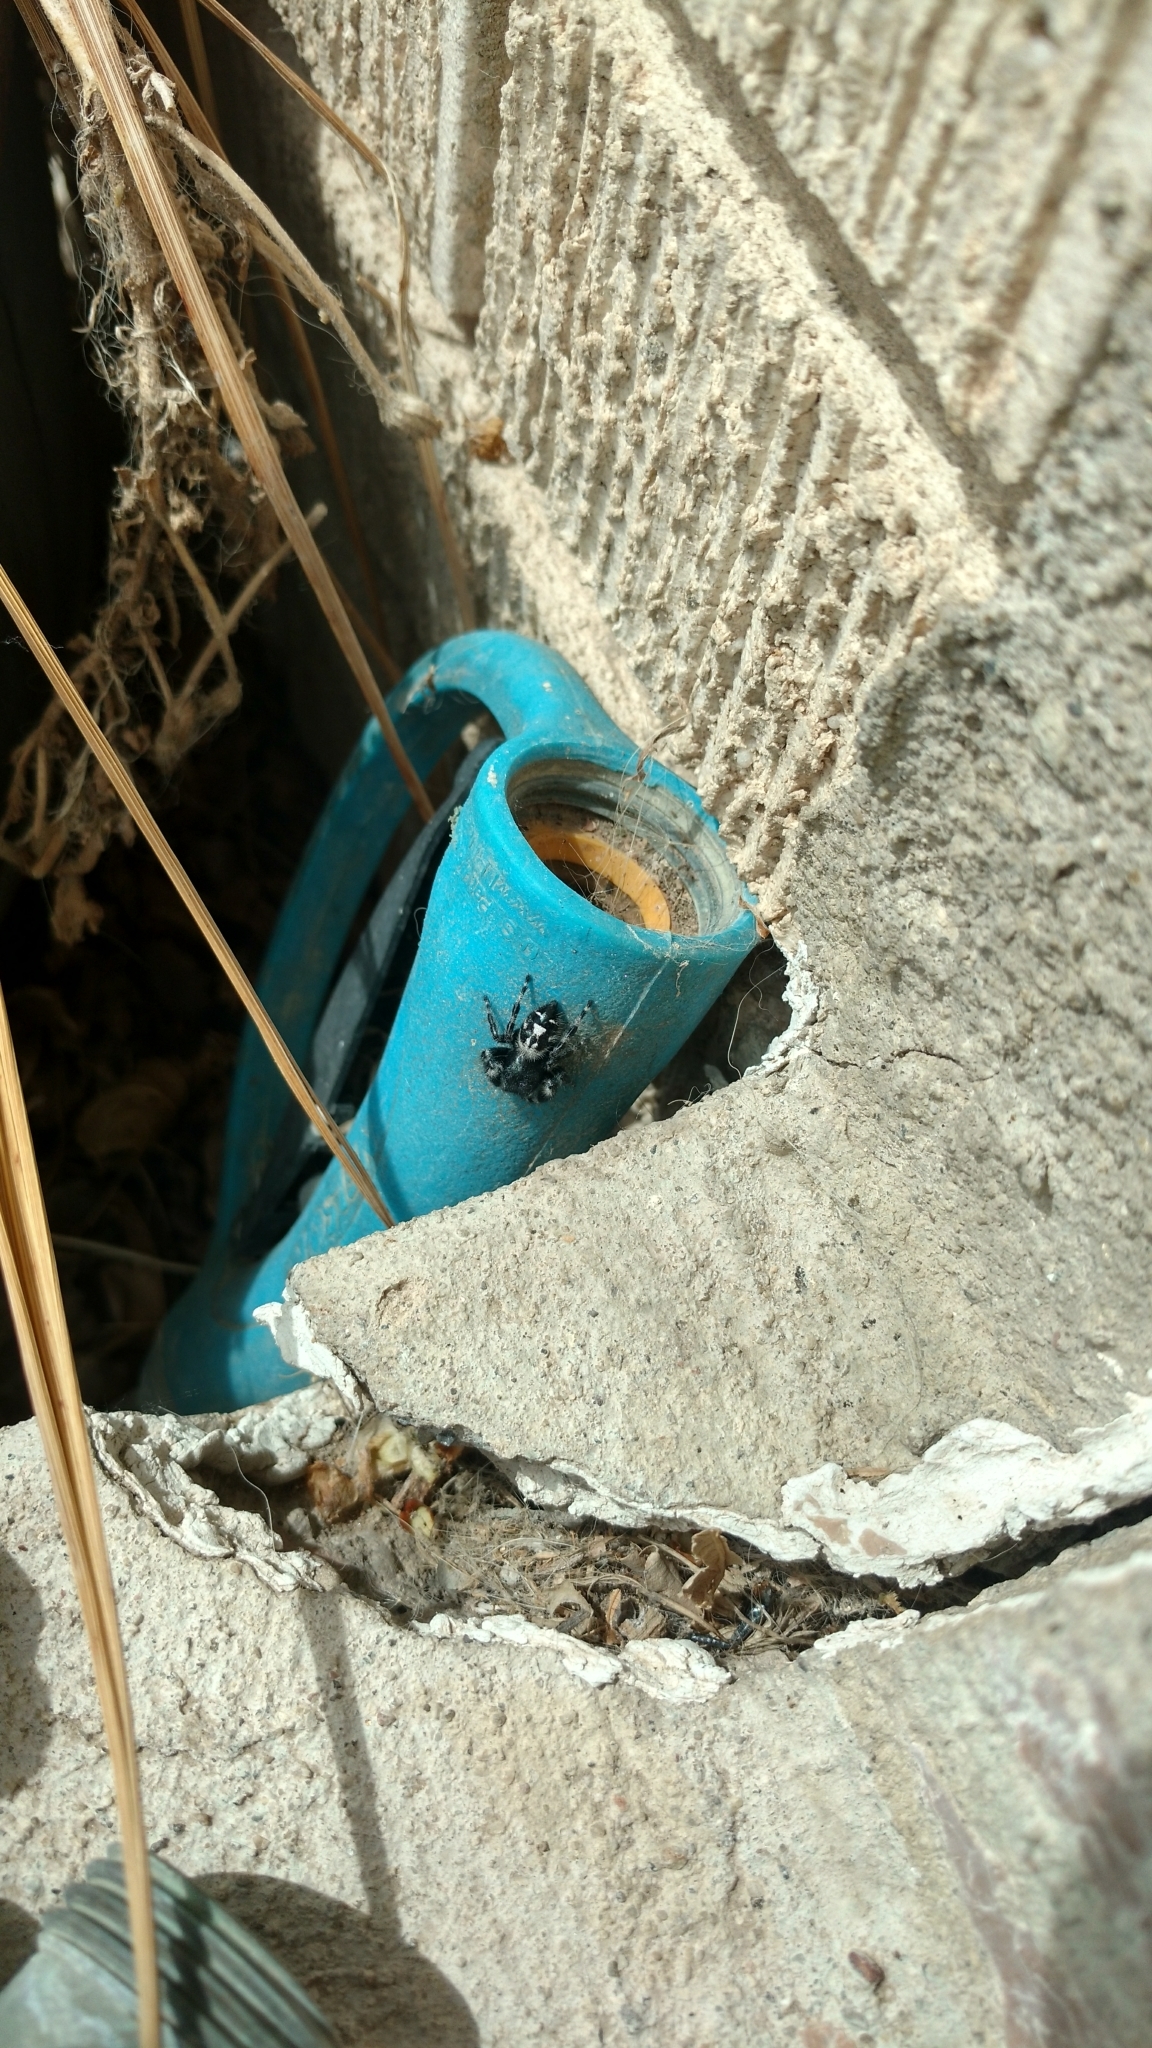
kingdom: Animalia
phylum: Arthropoda
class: Arachnida
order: Araneae
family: Salticidae
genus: Phidippus
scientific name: Phidippus audax
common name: Bold jumper
